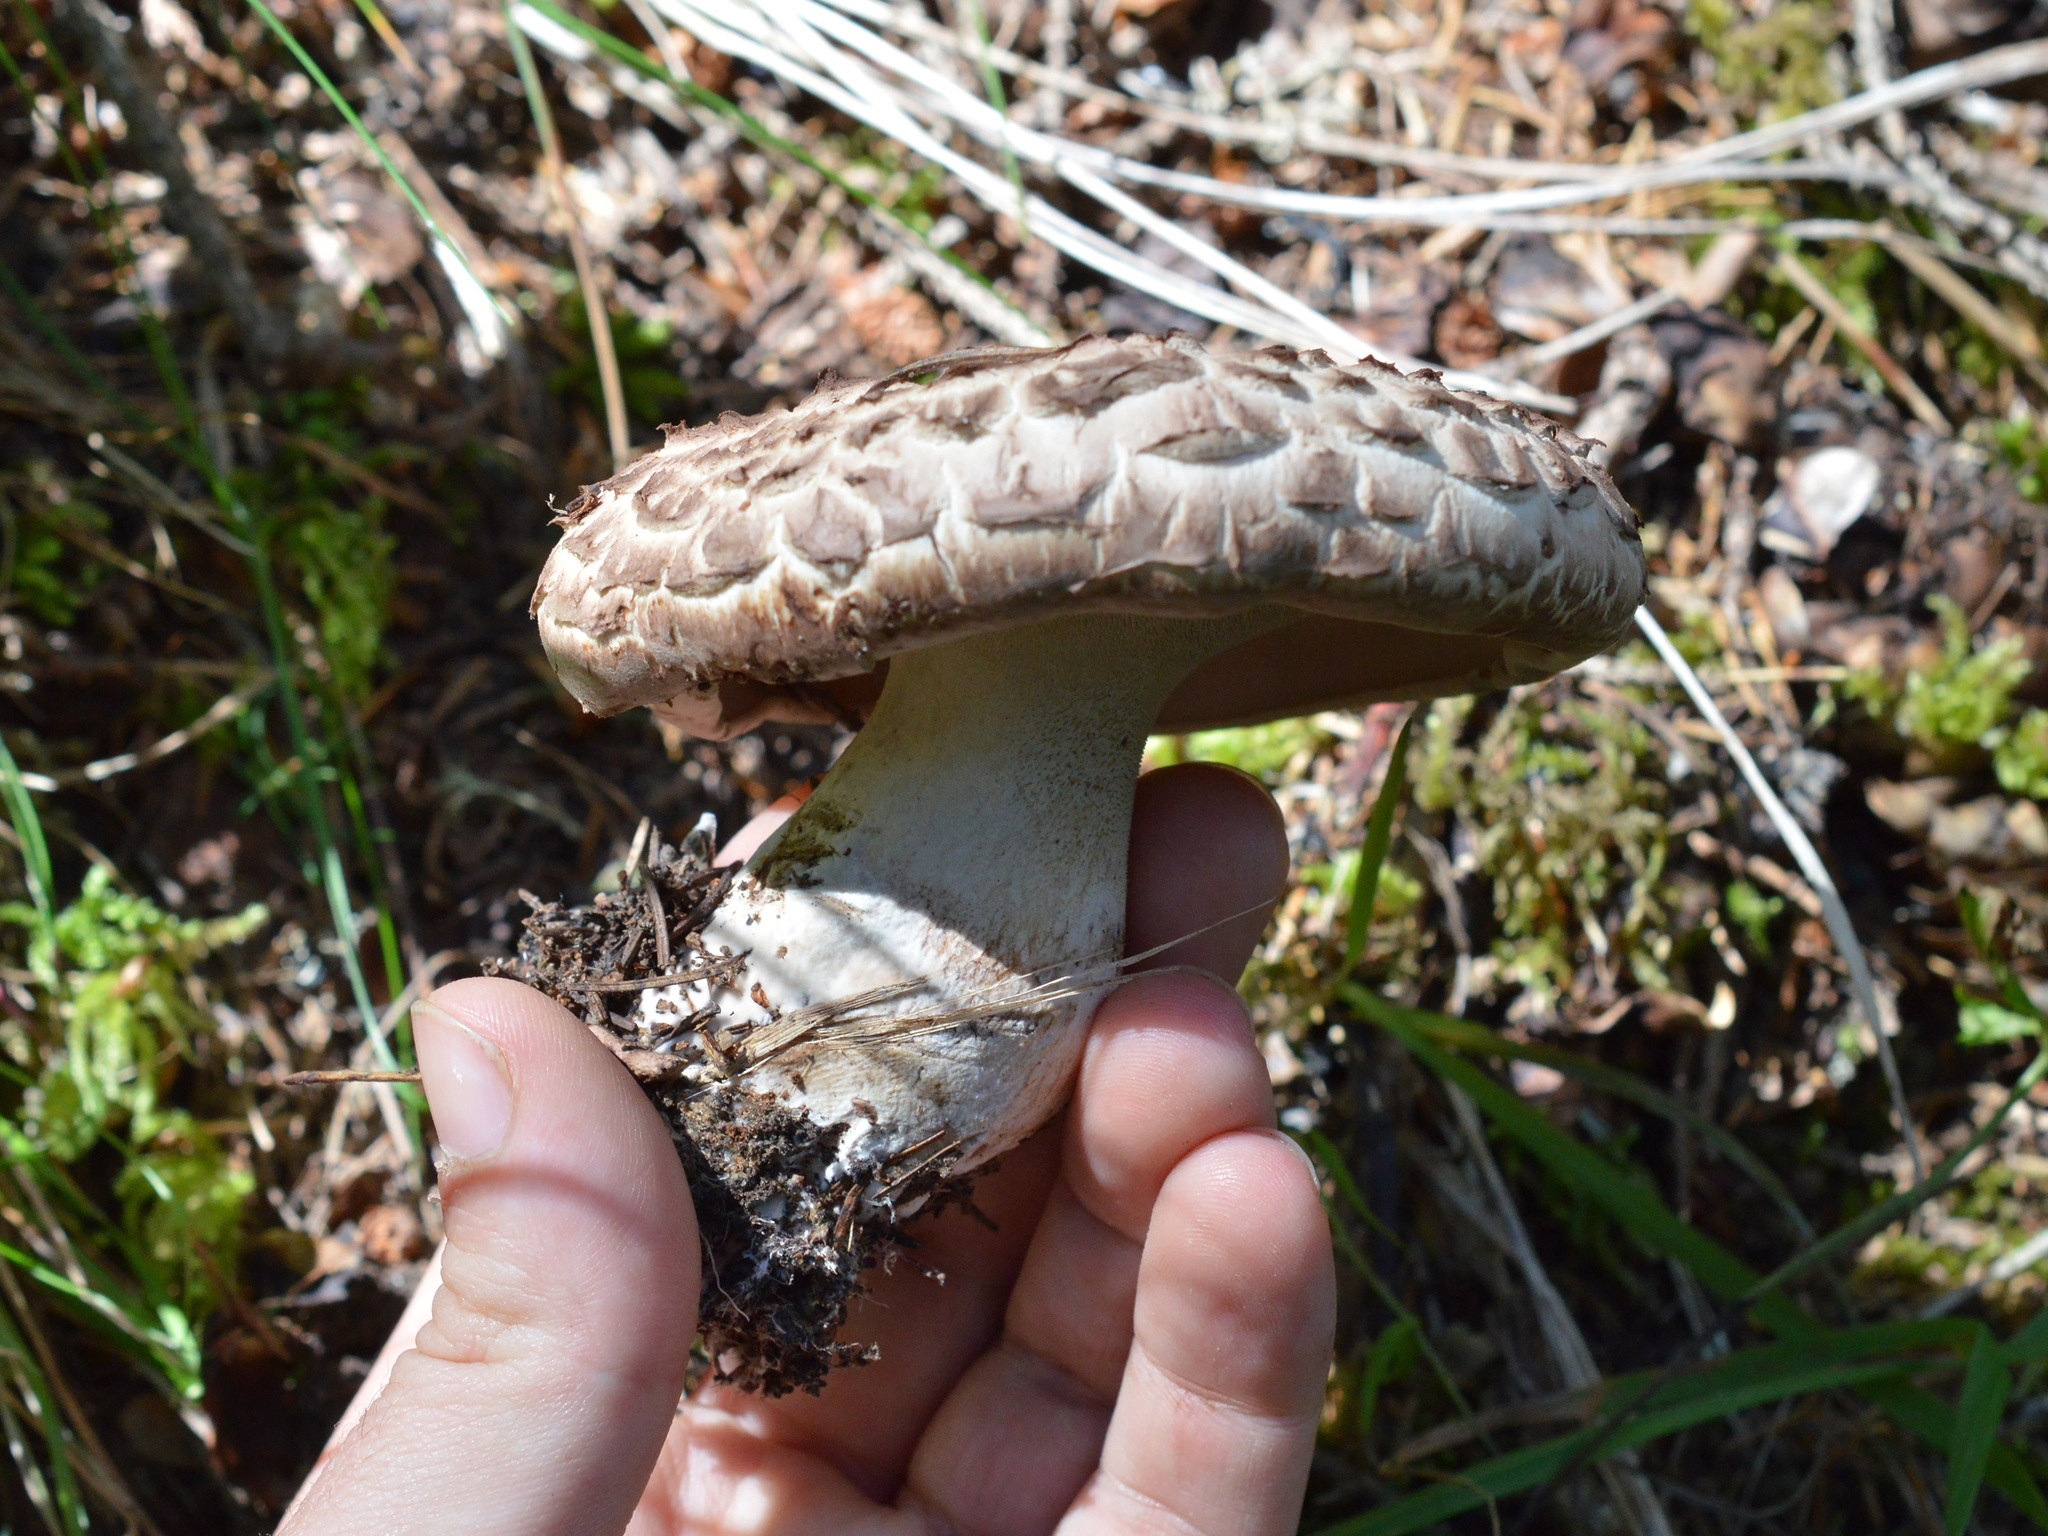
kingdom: Fungi
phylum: Basidiomycota
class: Agaricomycetes
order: Thelephorales
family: Bankeraceae
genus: Sarcodon
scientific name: Sarcodon imbricatus
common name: Shingled hedgehog
